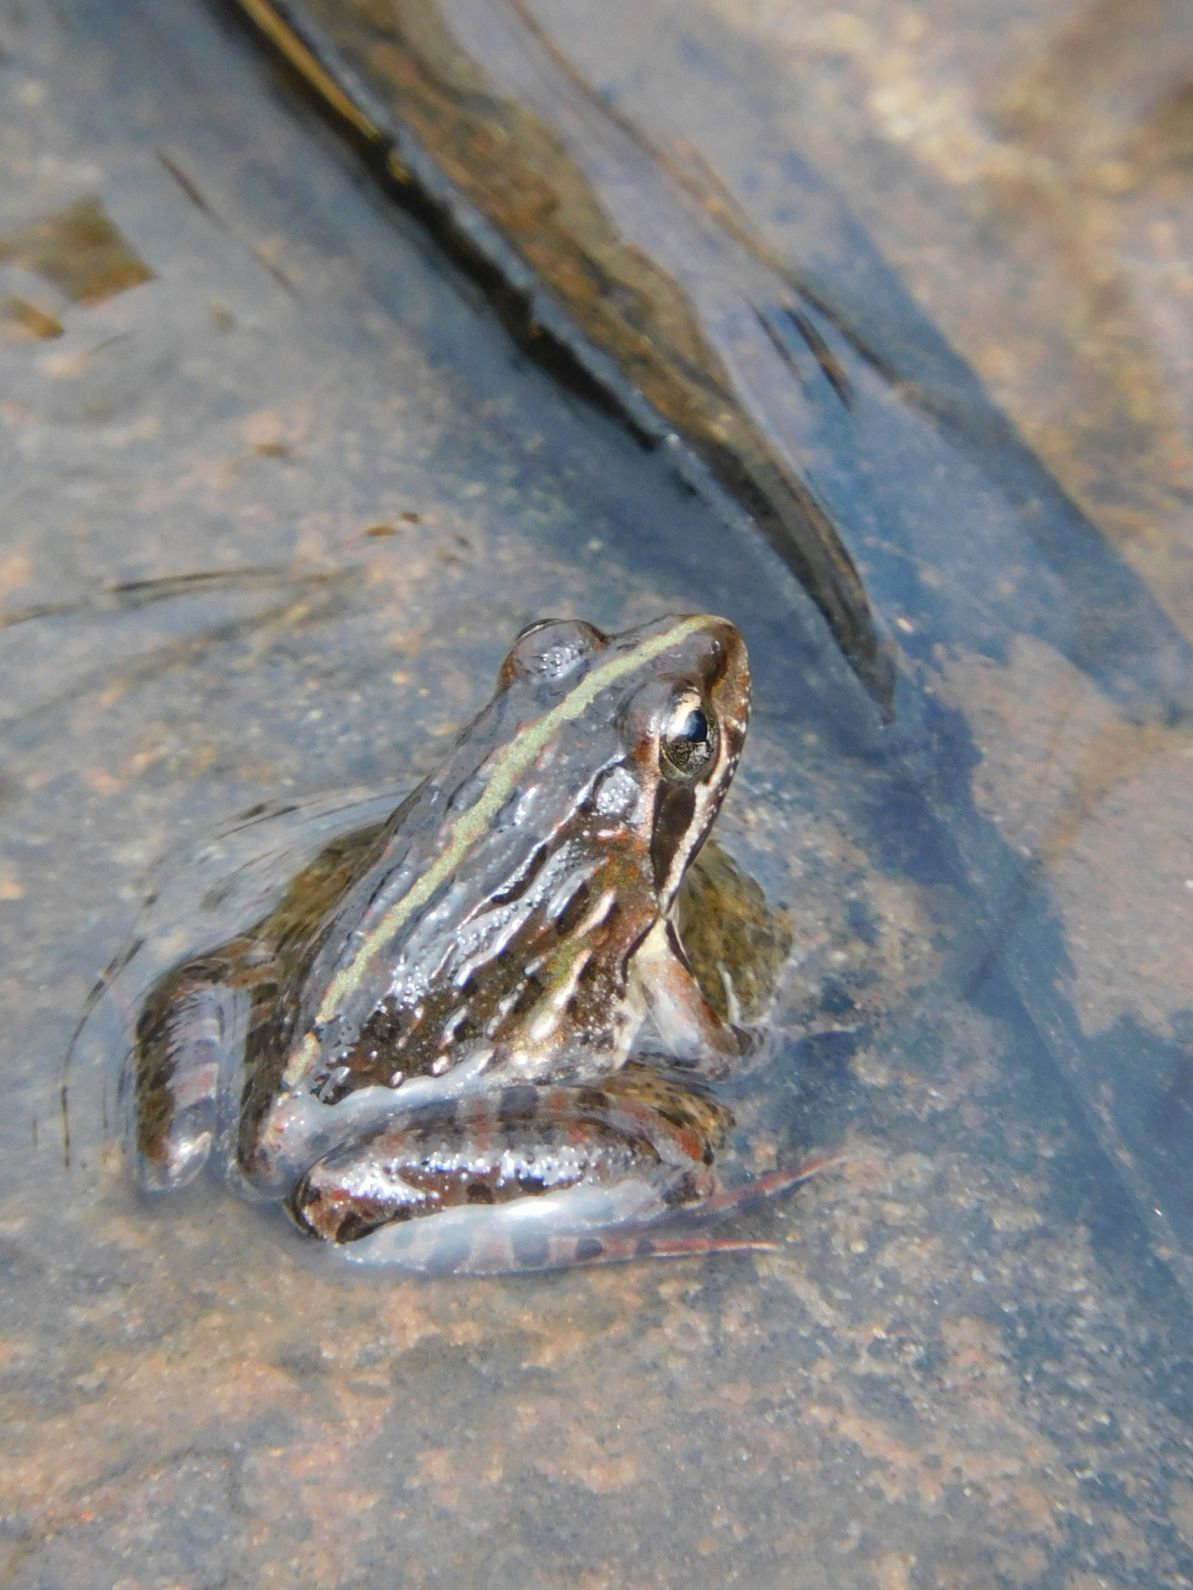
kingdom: Animalia
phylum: Chordata
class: Amphibia
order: Anura
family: Pyxicephalidae
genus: Amietia
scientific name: Amietia delalandii
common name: Delalande's river frog
